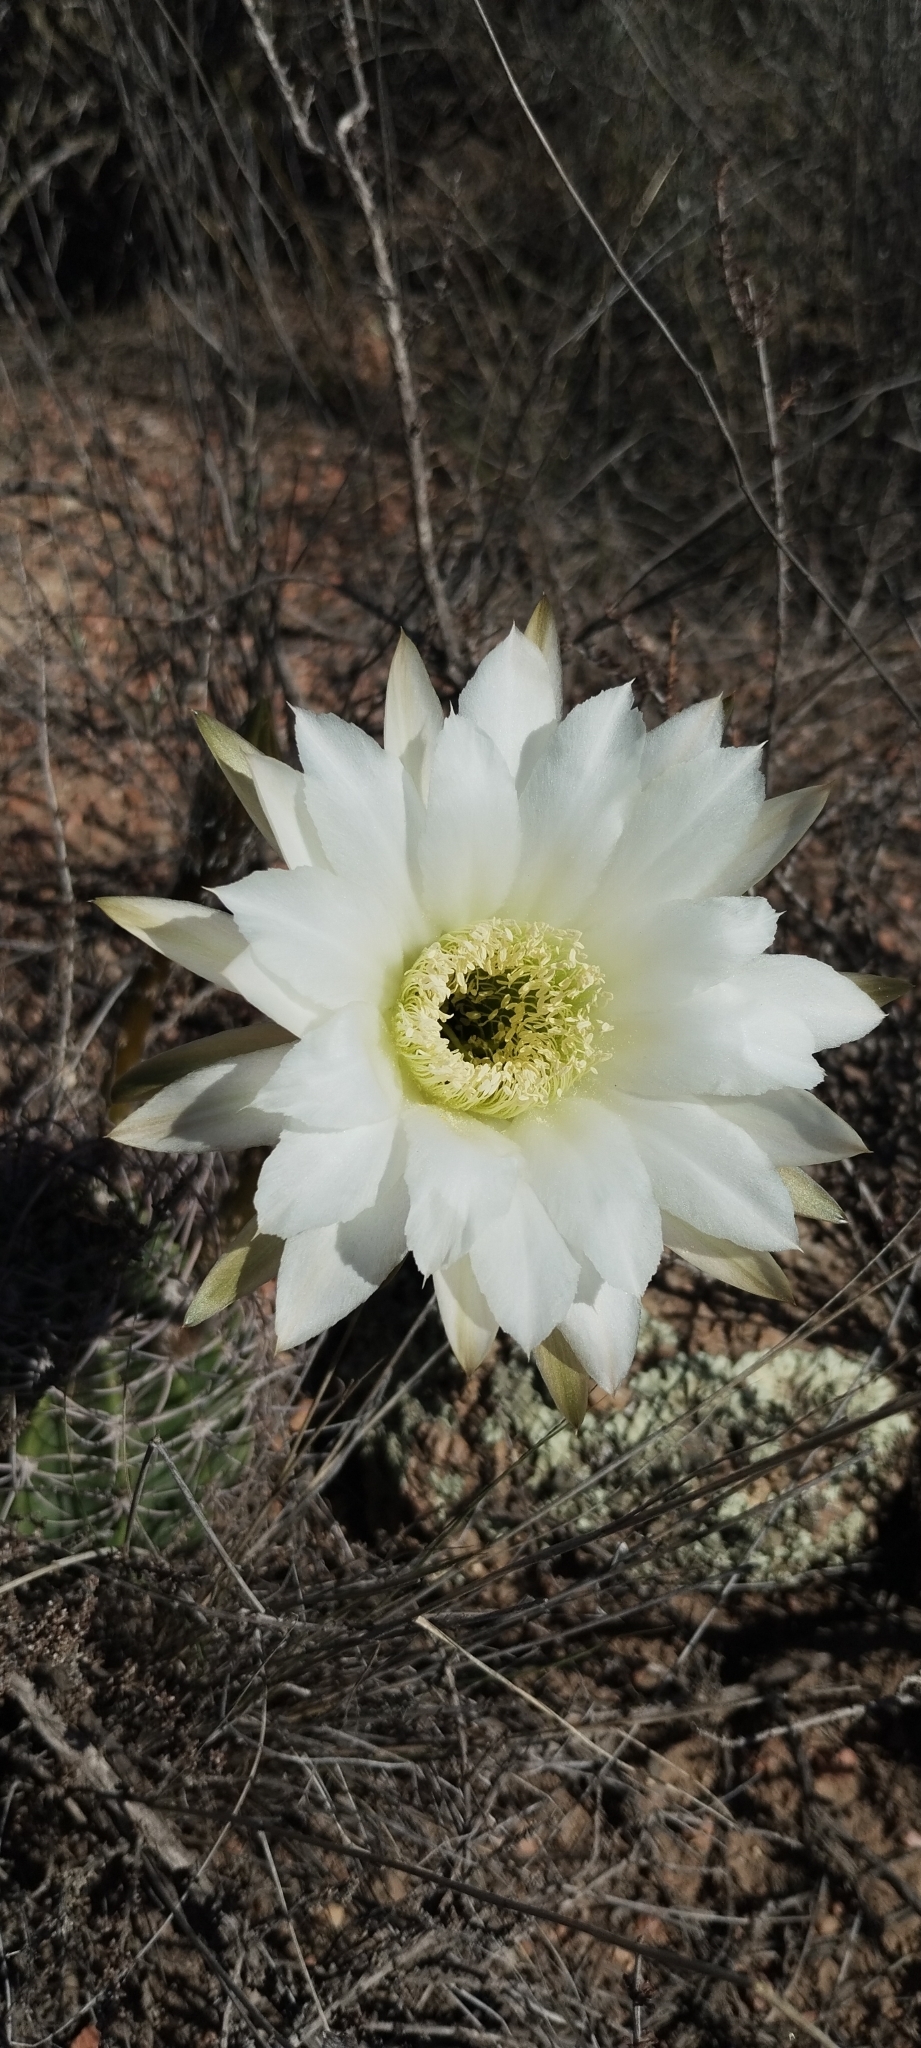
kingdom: Plantae
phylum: Tracheophyta
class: Magnoliopsida
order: Caryophyllales
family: Cactaceae
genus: Acanthocalycium
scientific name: Acanthocalycium leucanthum
